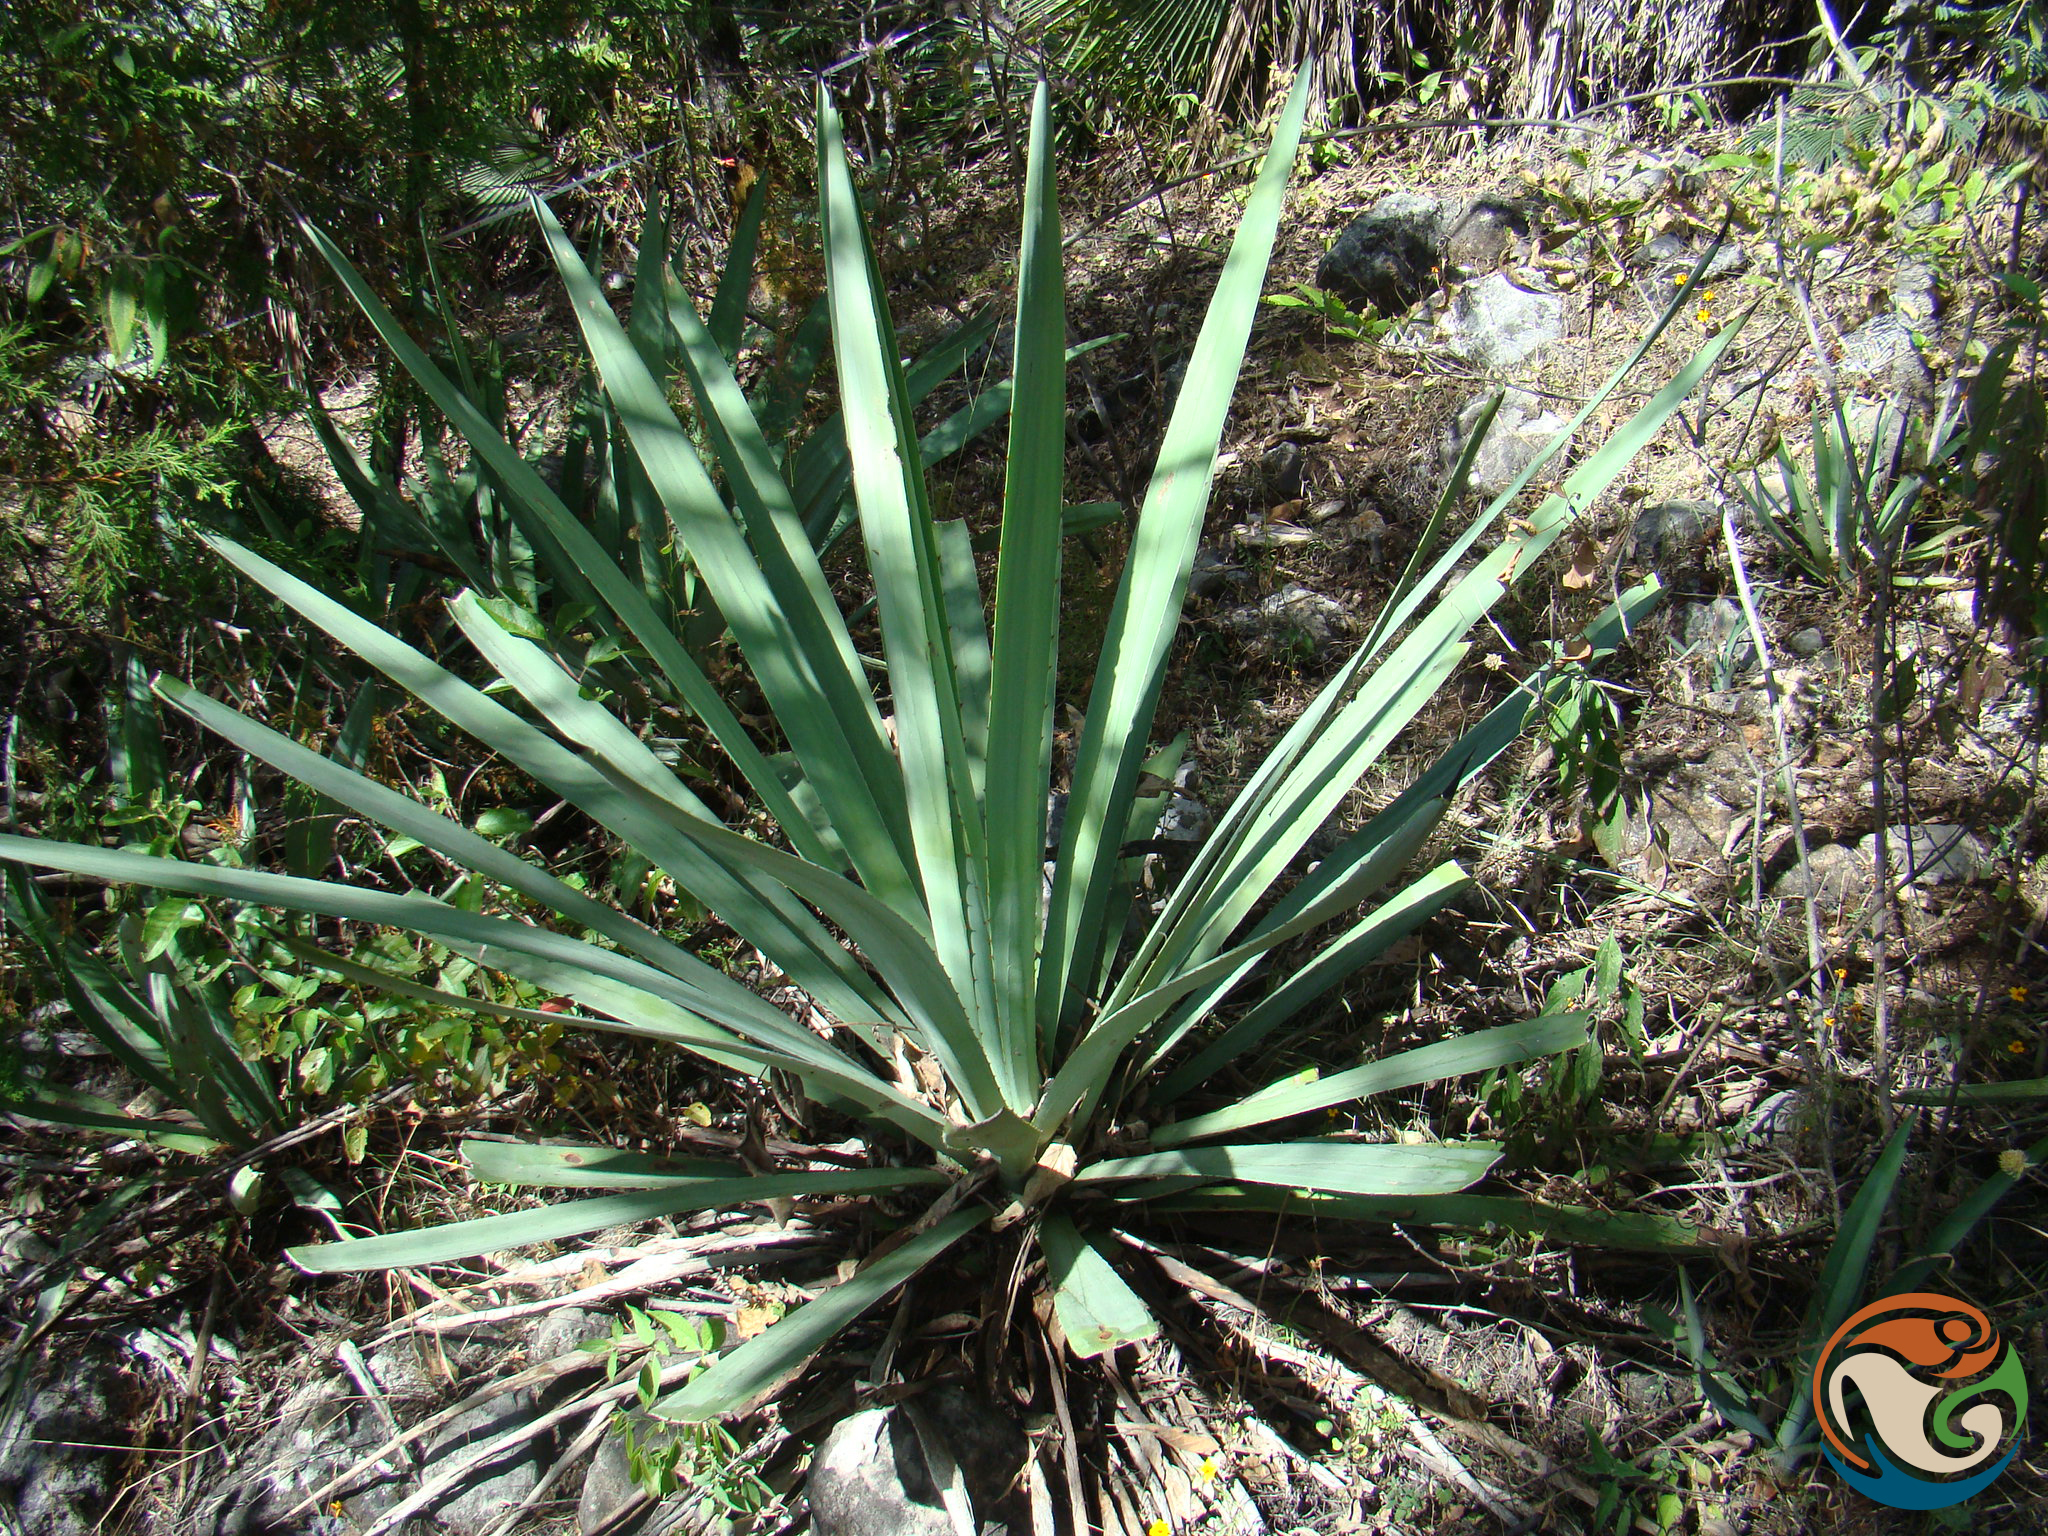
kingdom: Plantae
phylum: Tracheophyta
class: Liliopsida
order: Asparagales
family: Asparagaceae
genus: Agave
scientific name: Agave angustifolia
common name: Mescal agave
